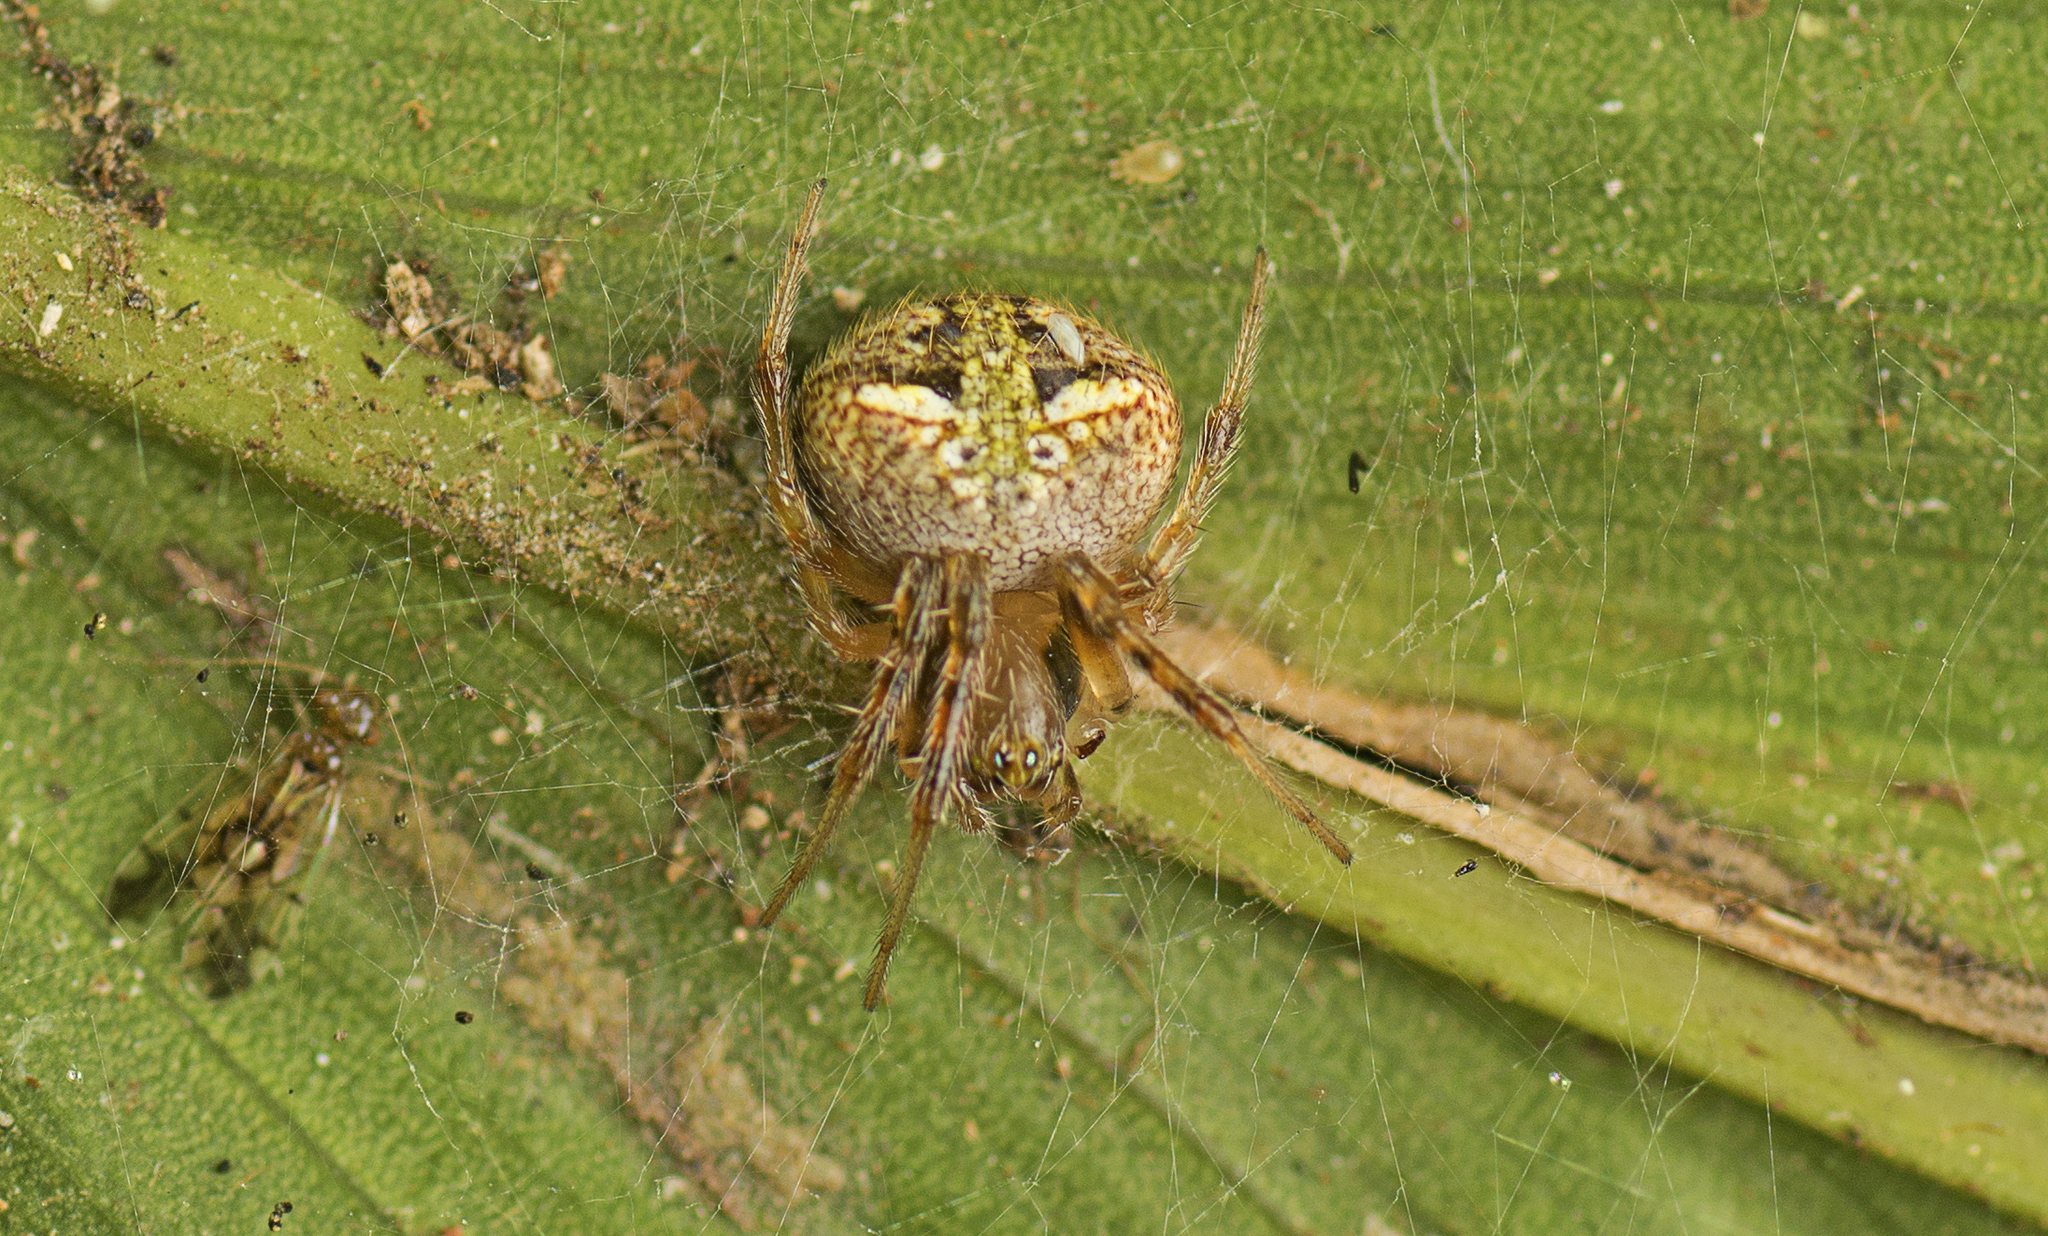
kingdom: Animalia
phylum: Arthropoda
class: Arachnida
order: Araneae
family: Araneidae
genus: Araneus
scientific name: Araneus albotriangulus
